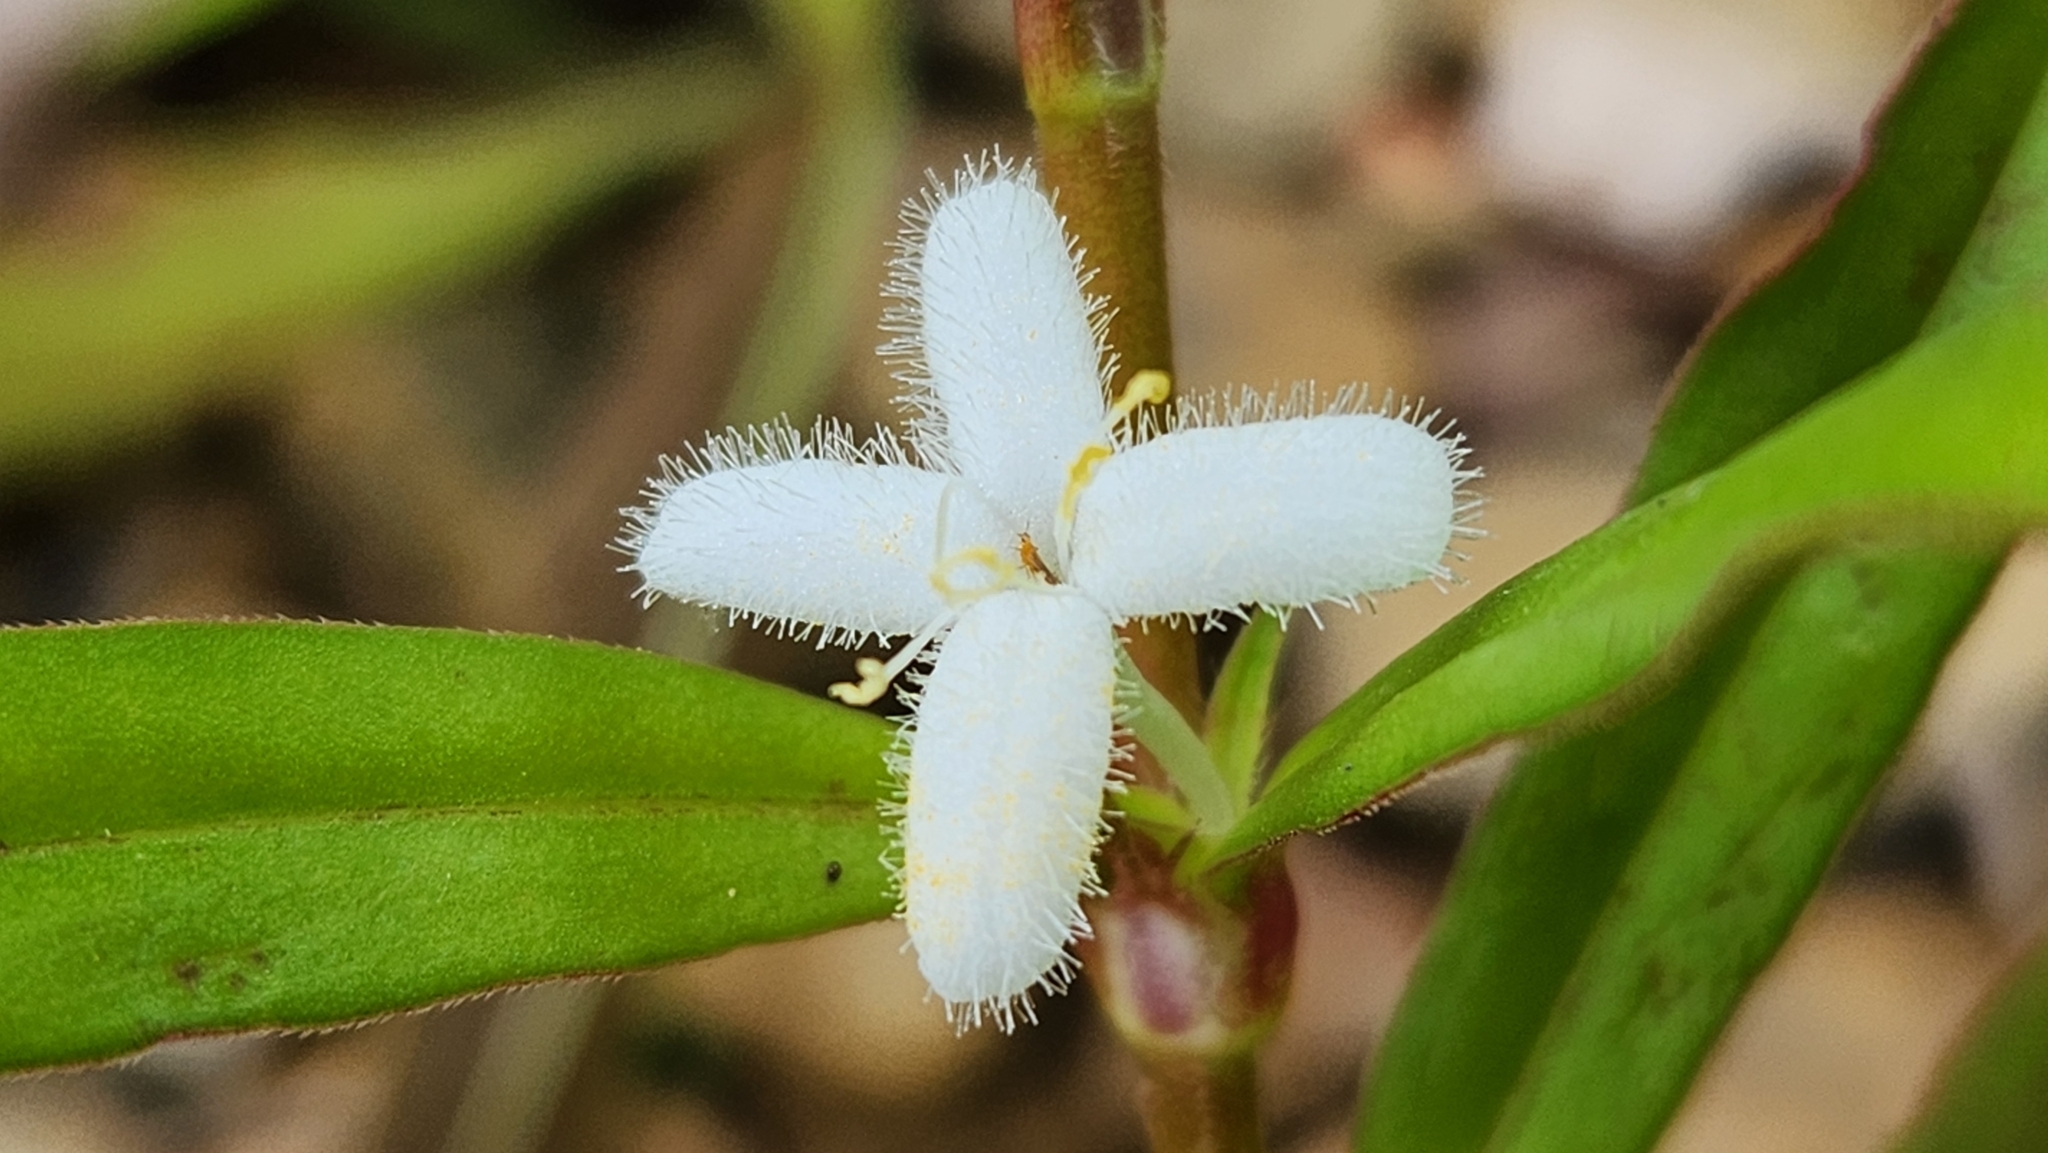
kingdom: Plantae
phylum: Tracheophyta
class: Magnoliopsida
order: Gentianales
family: Rubiaceae
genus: Diodia
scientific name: Diodia virginiana
